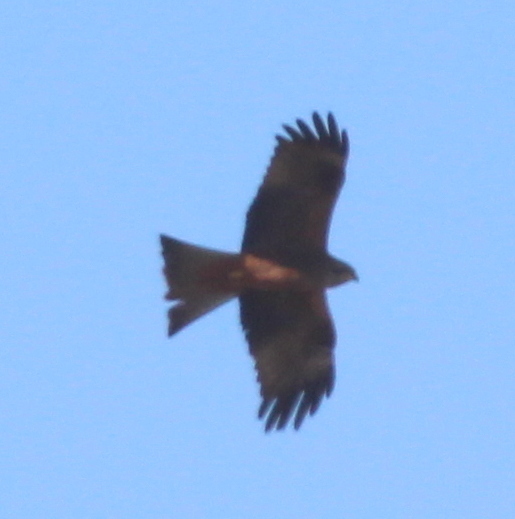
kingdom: Animalia
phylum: Chordata
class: Aves
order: Accipitriformes
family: Accipitridae
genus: Milvus
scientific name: Milvus migrans
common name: Black kite
